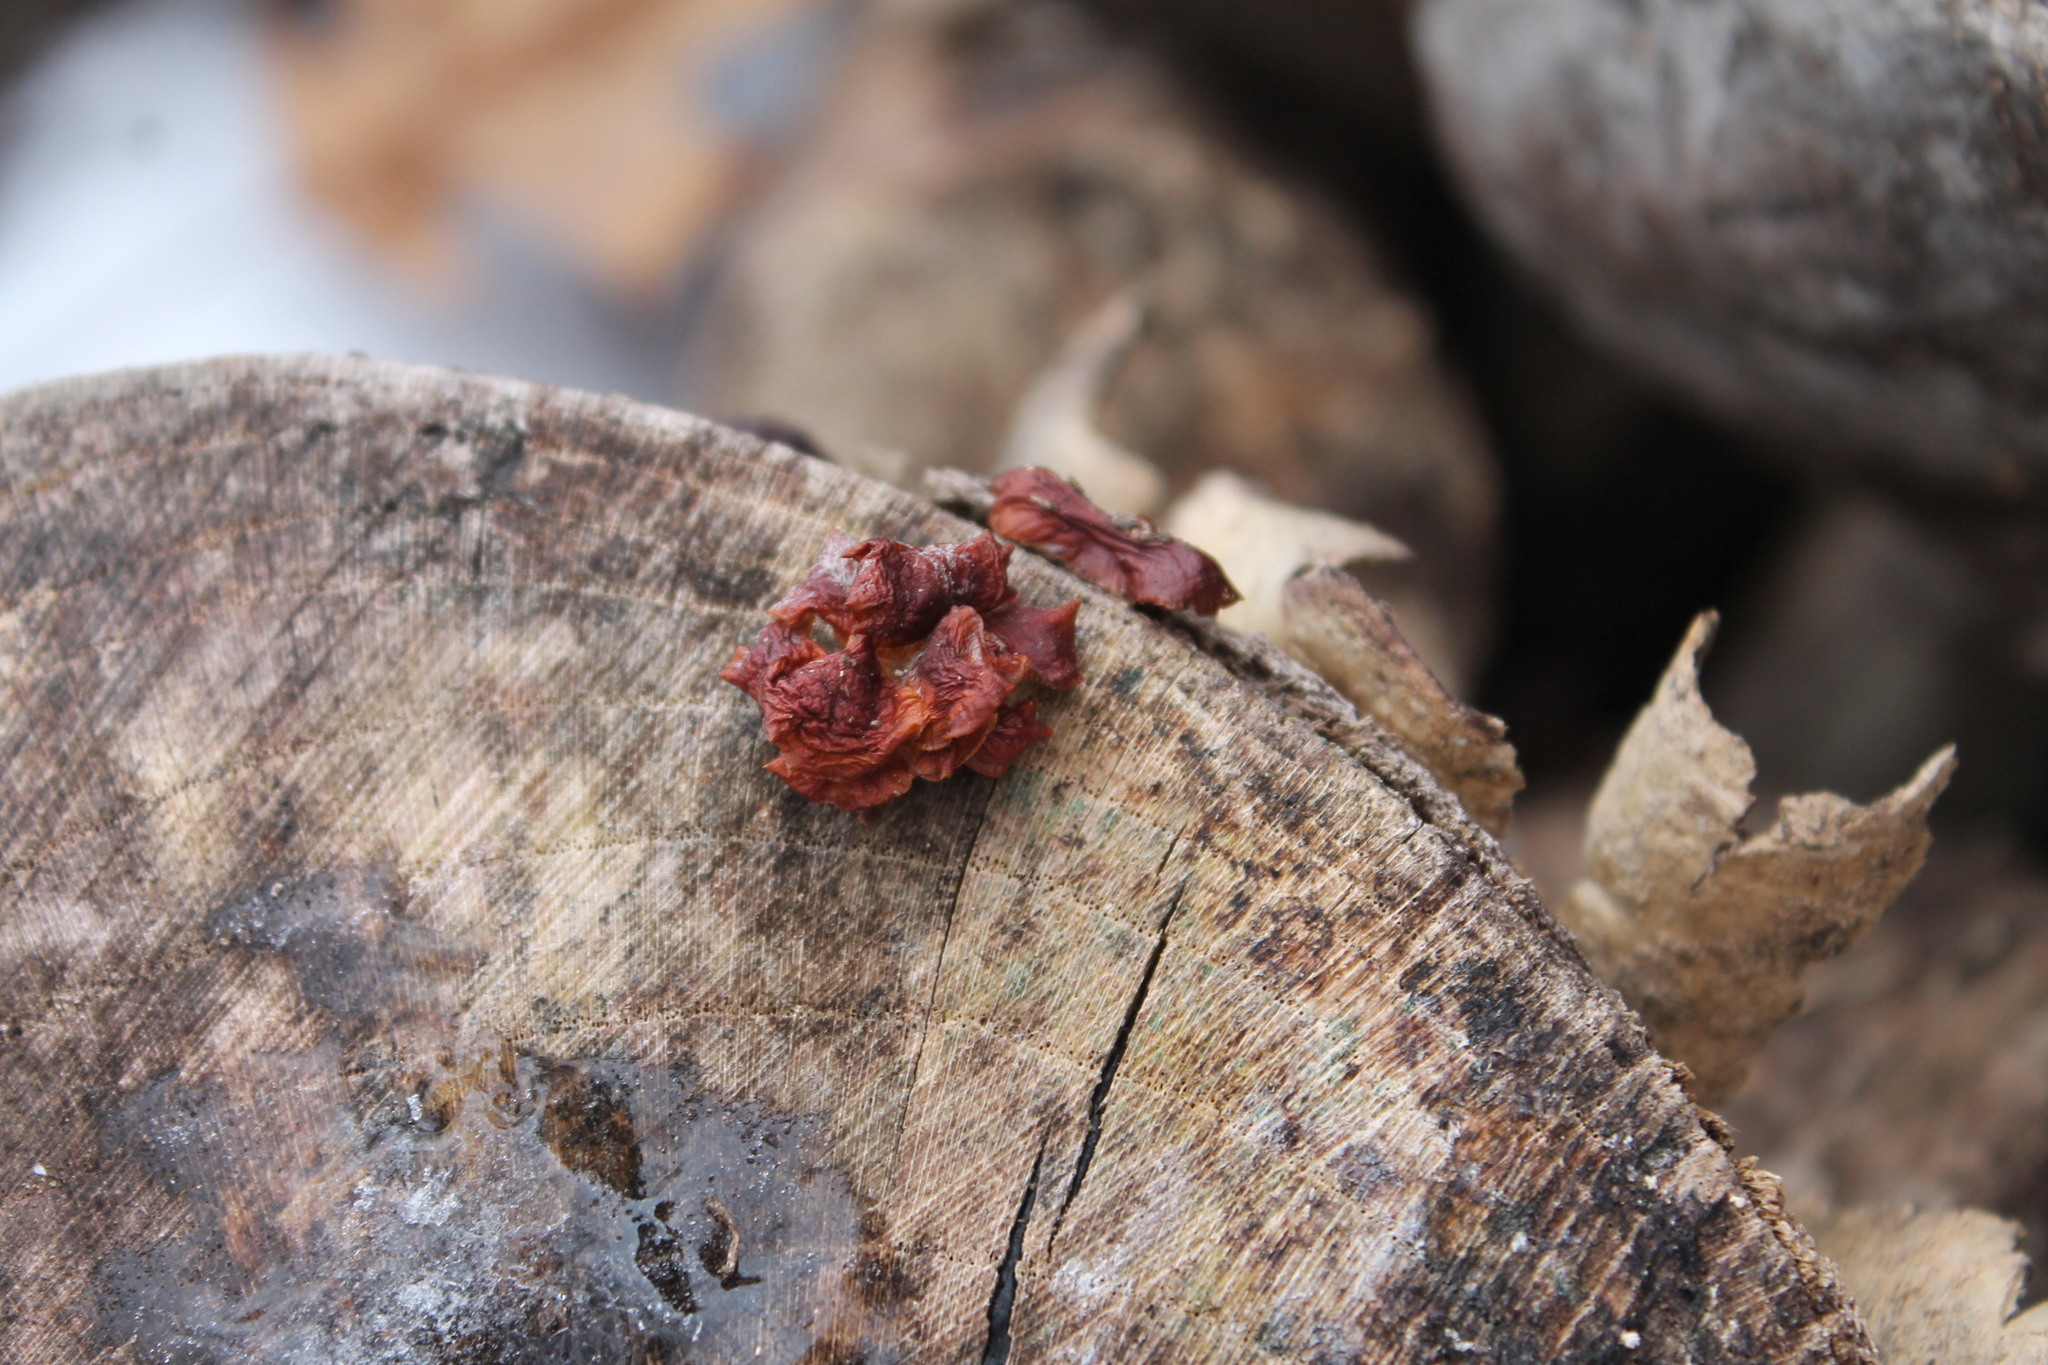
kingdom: Fungi
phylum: Basidiomycota
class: Agaricomycetes
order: Agaricales
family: Physalacriaceae
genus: Flammulina
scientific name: Flammulina velutipes
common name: Velvet shank
